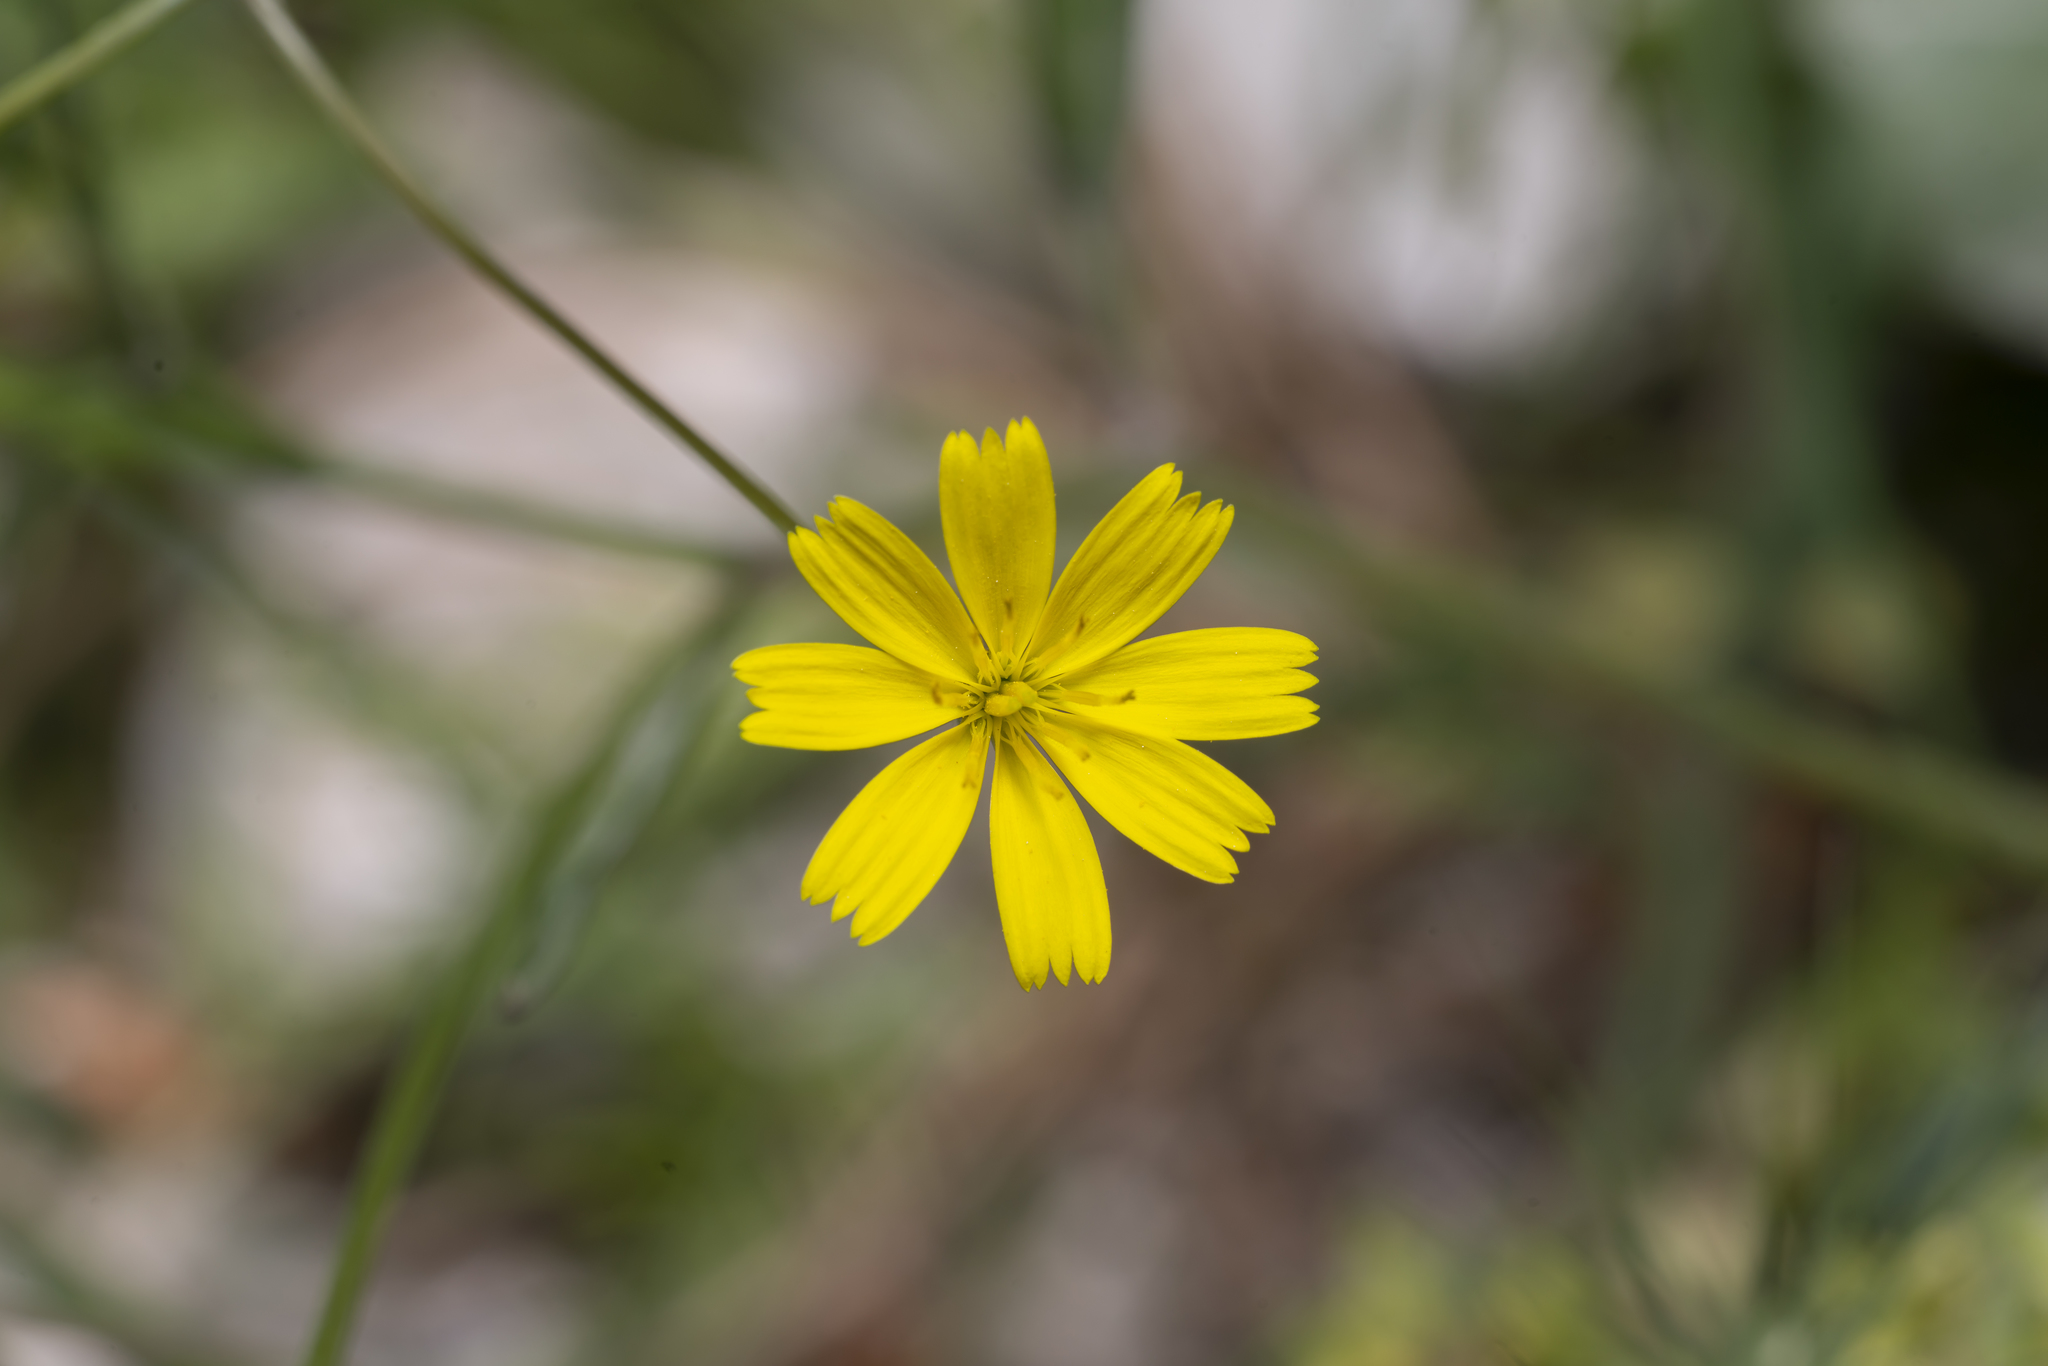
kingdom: Plantae
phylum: Tracheophyta
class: Magnoliopsida
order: Asterales
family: Asteraceae
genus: Rhagadiolus
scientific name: Rhagadiolus stellatus
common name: Star hawkbit
